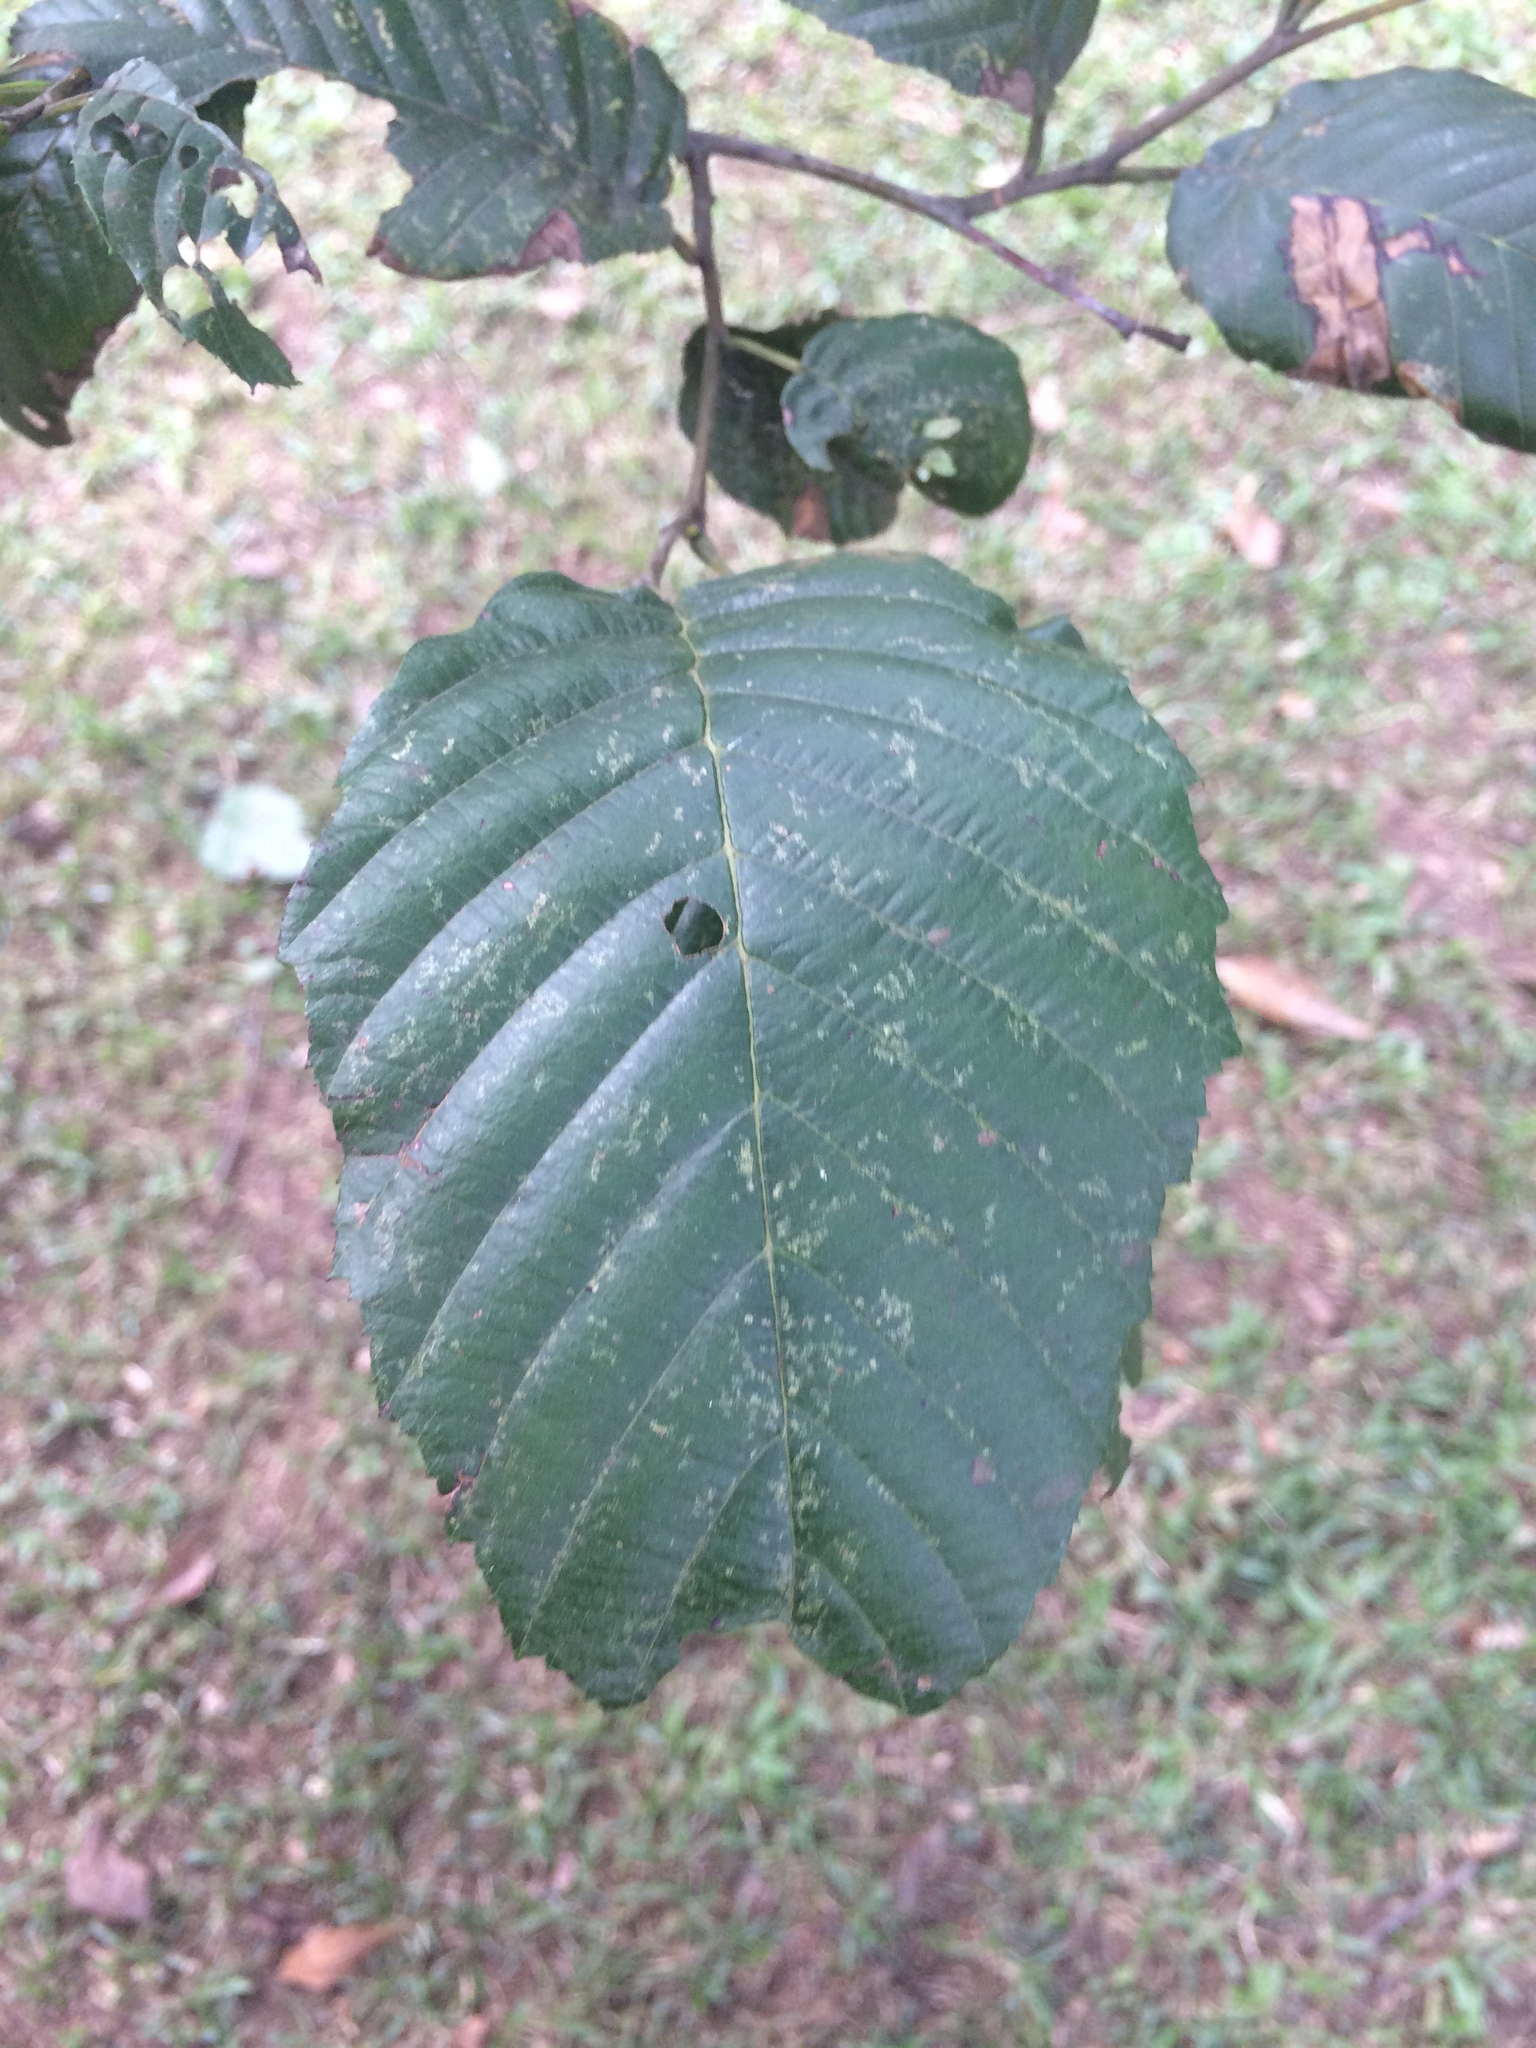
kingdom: Plantae
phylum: Tracheophyta
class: Magnoliopsida
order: Fagales
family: Betulaceae
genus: Alnus
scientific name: Alnus acuminata
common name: Alder
